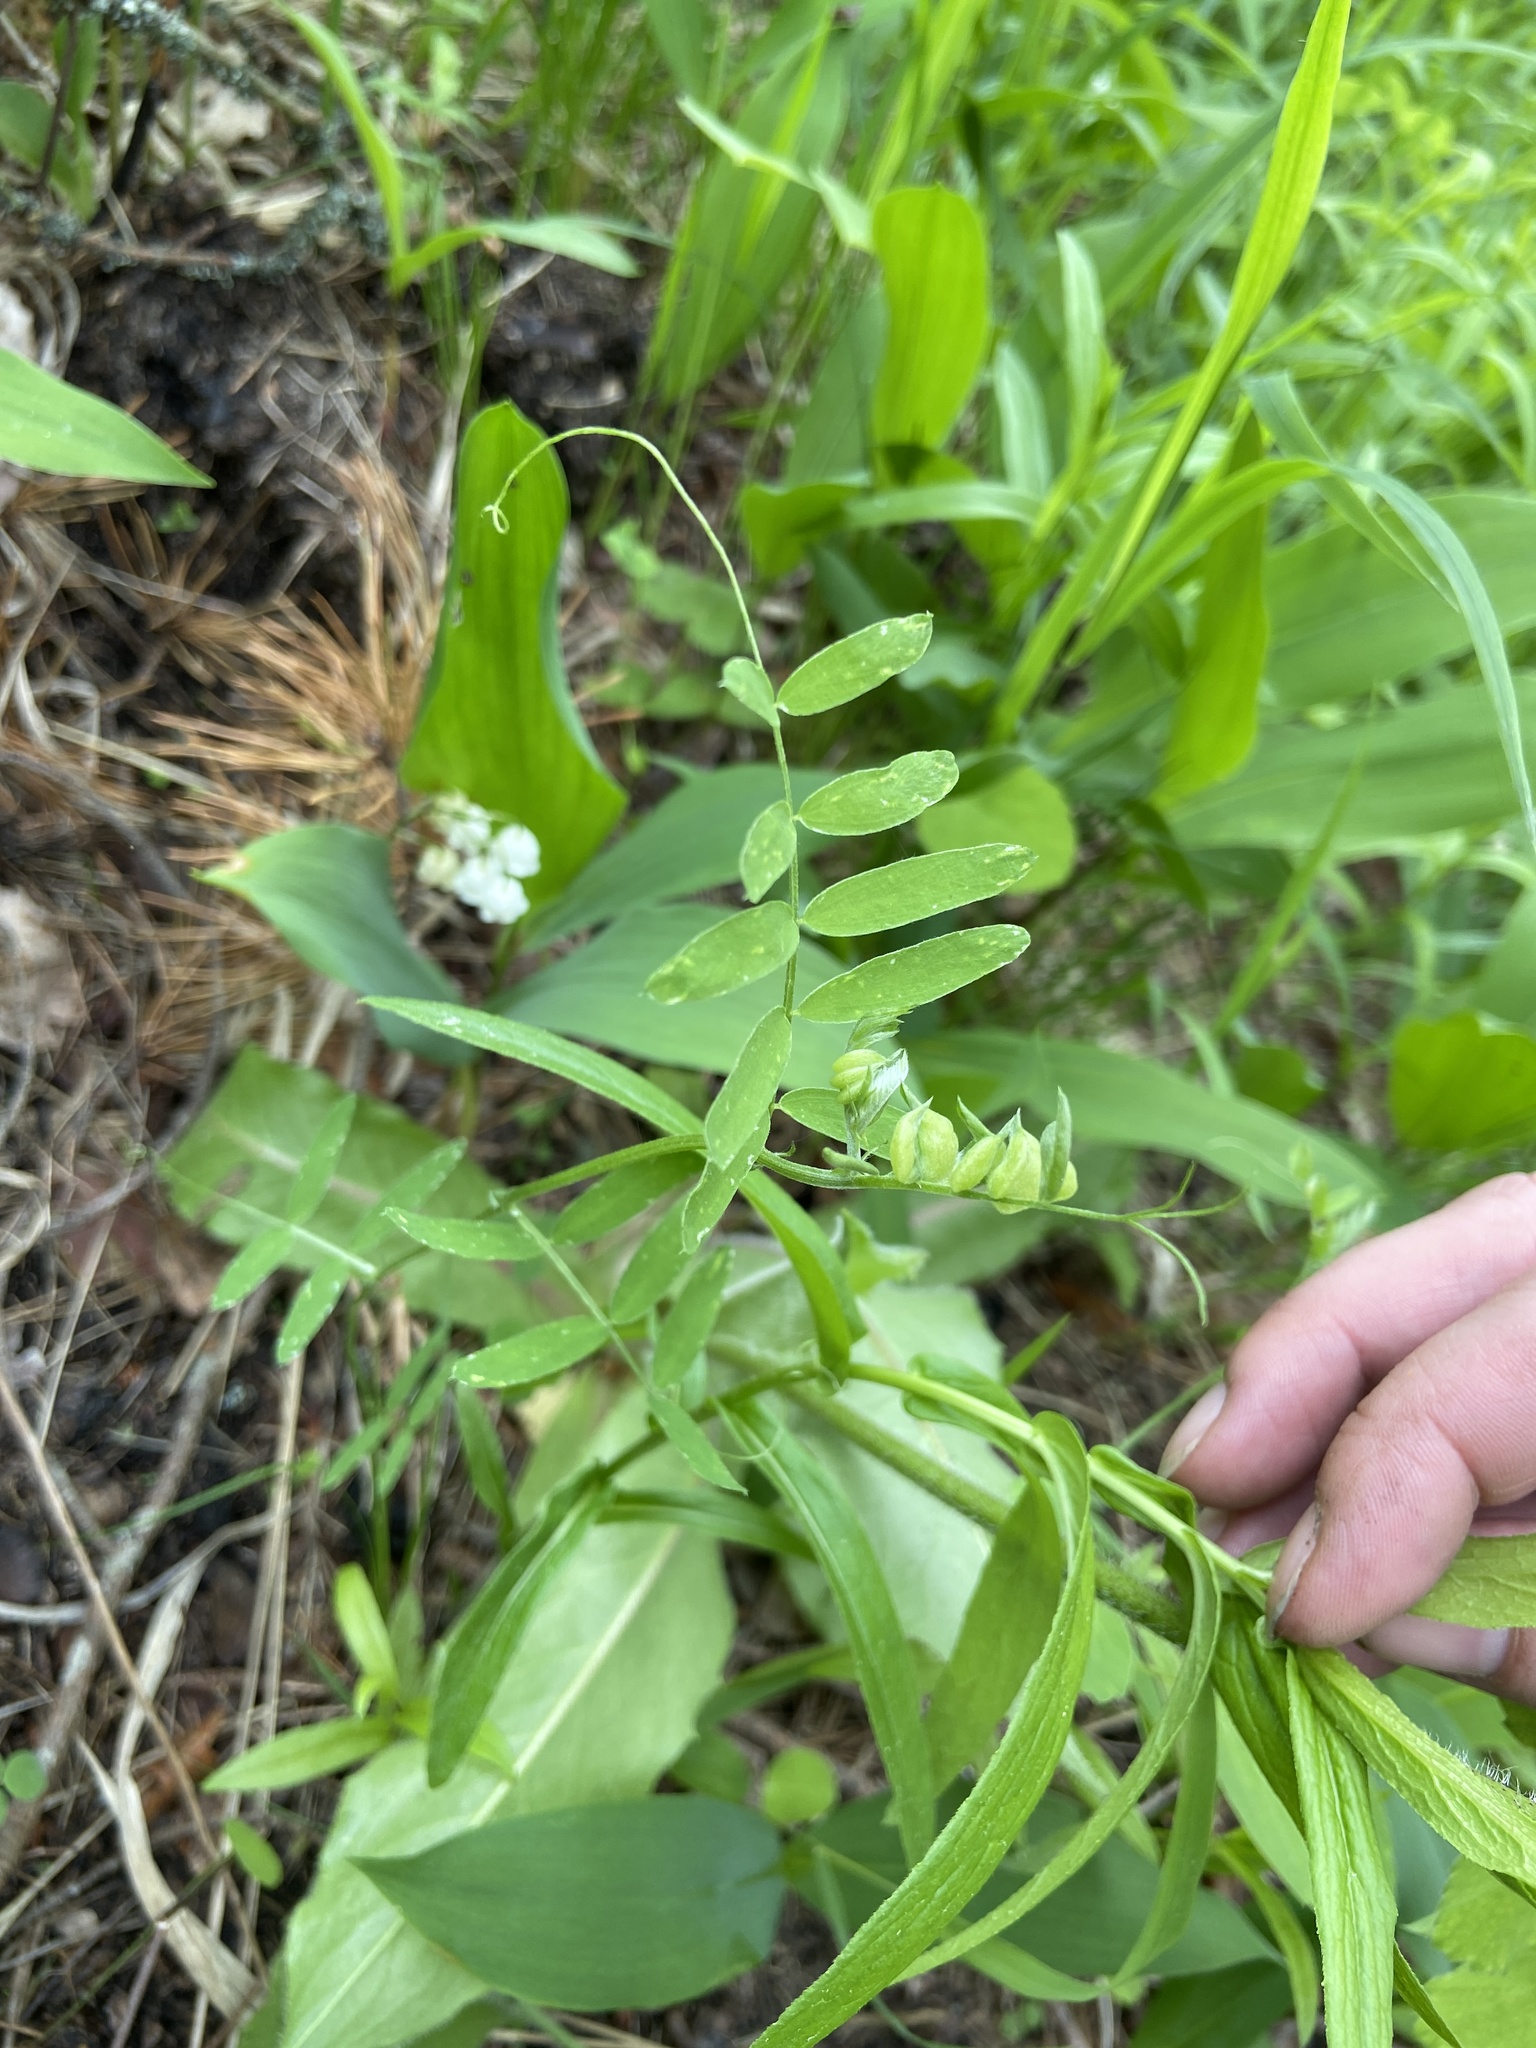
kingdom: Plantae
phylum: Tracheophyta
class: Magnoliopsida
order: Fabales
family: Fabaceae
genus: Vicia
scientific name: Vicia cracca
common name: Bird vetch
